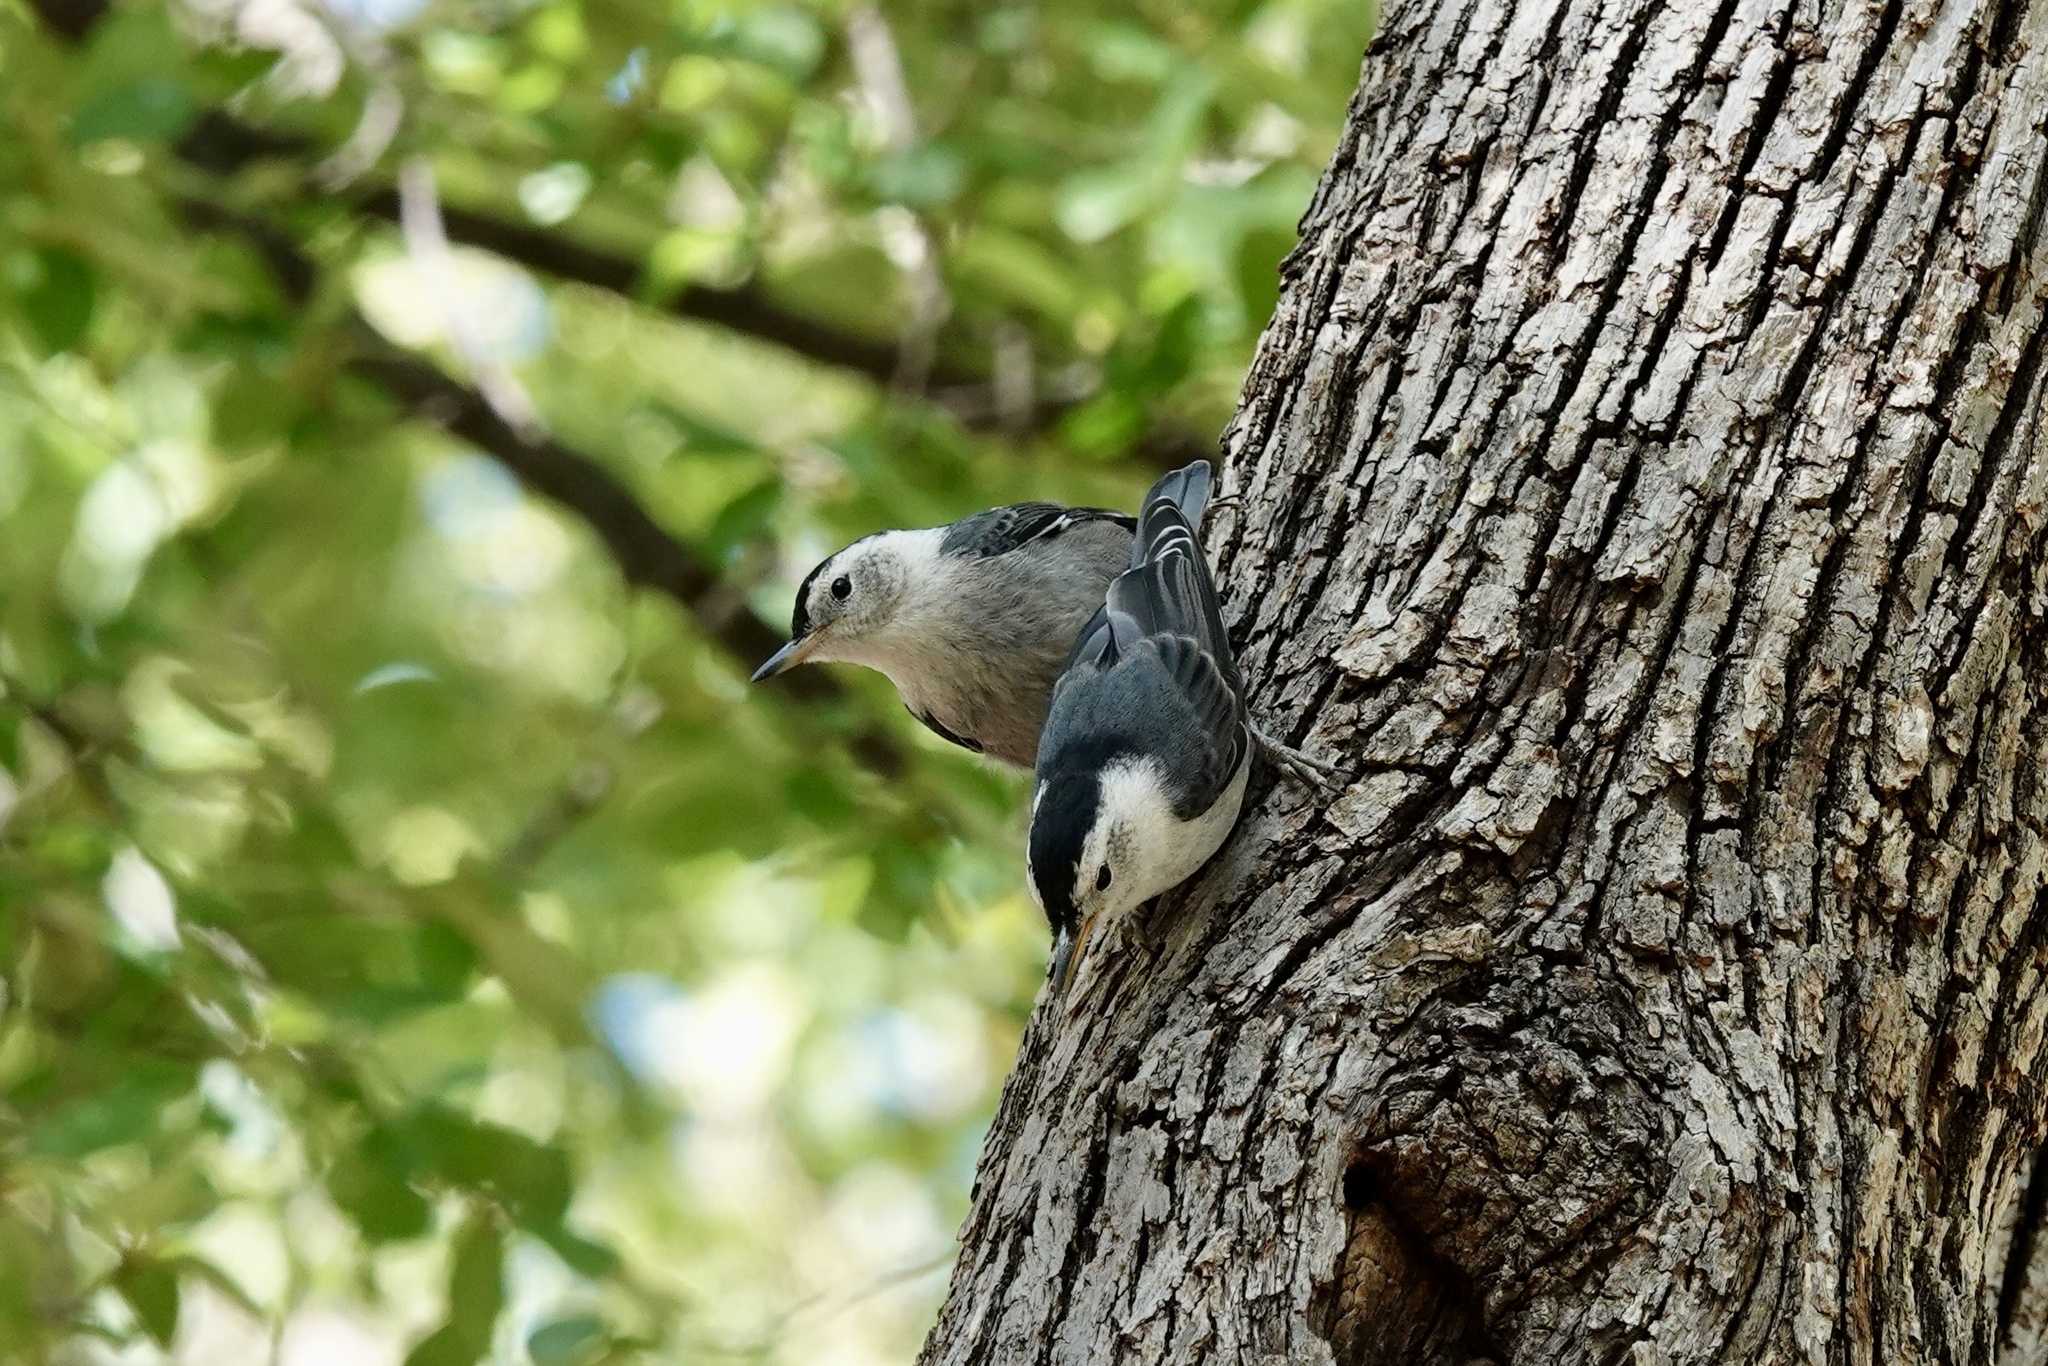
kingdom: Animalia
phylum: Chordata
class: Aves
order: Passeriformes
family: Sittidae
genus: Sitta
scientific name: Sitta carolinensis
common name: White-breasted nuthatch
